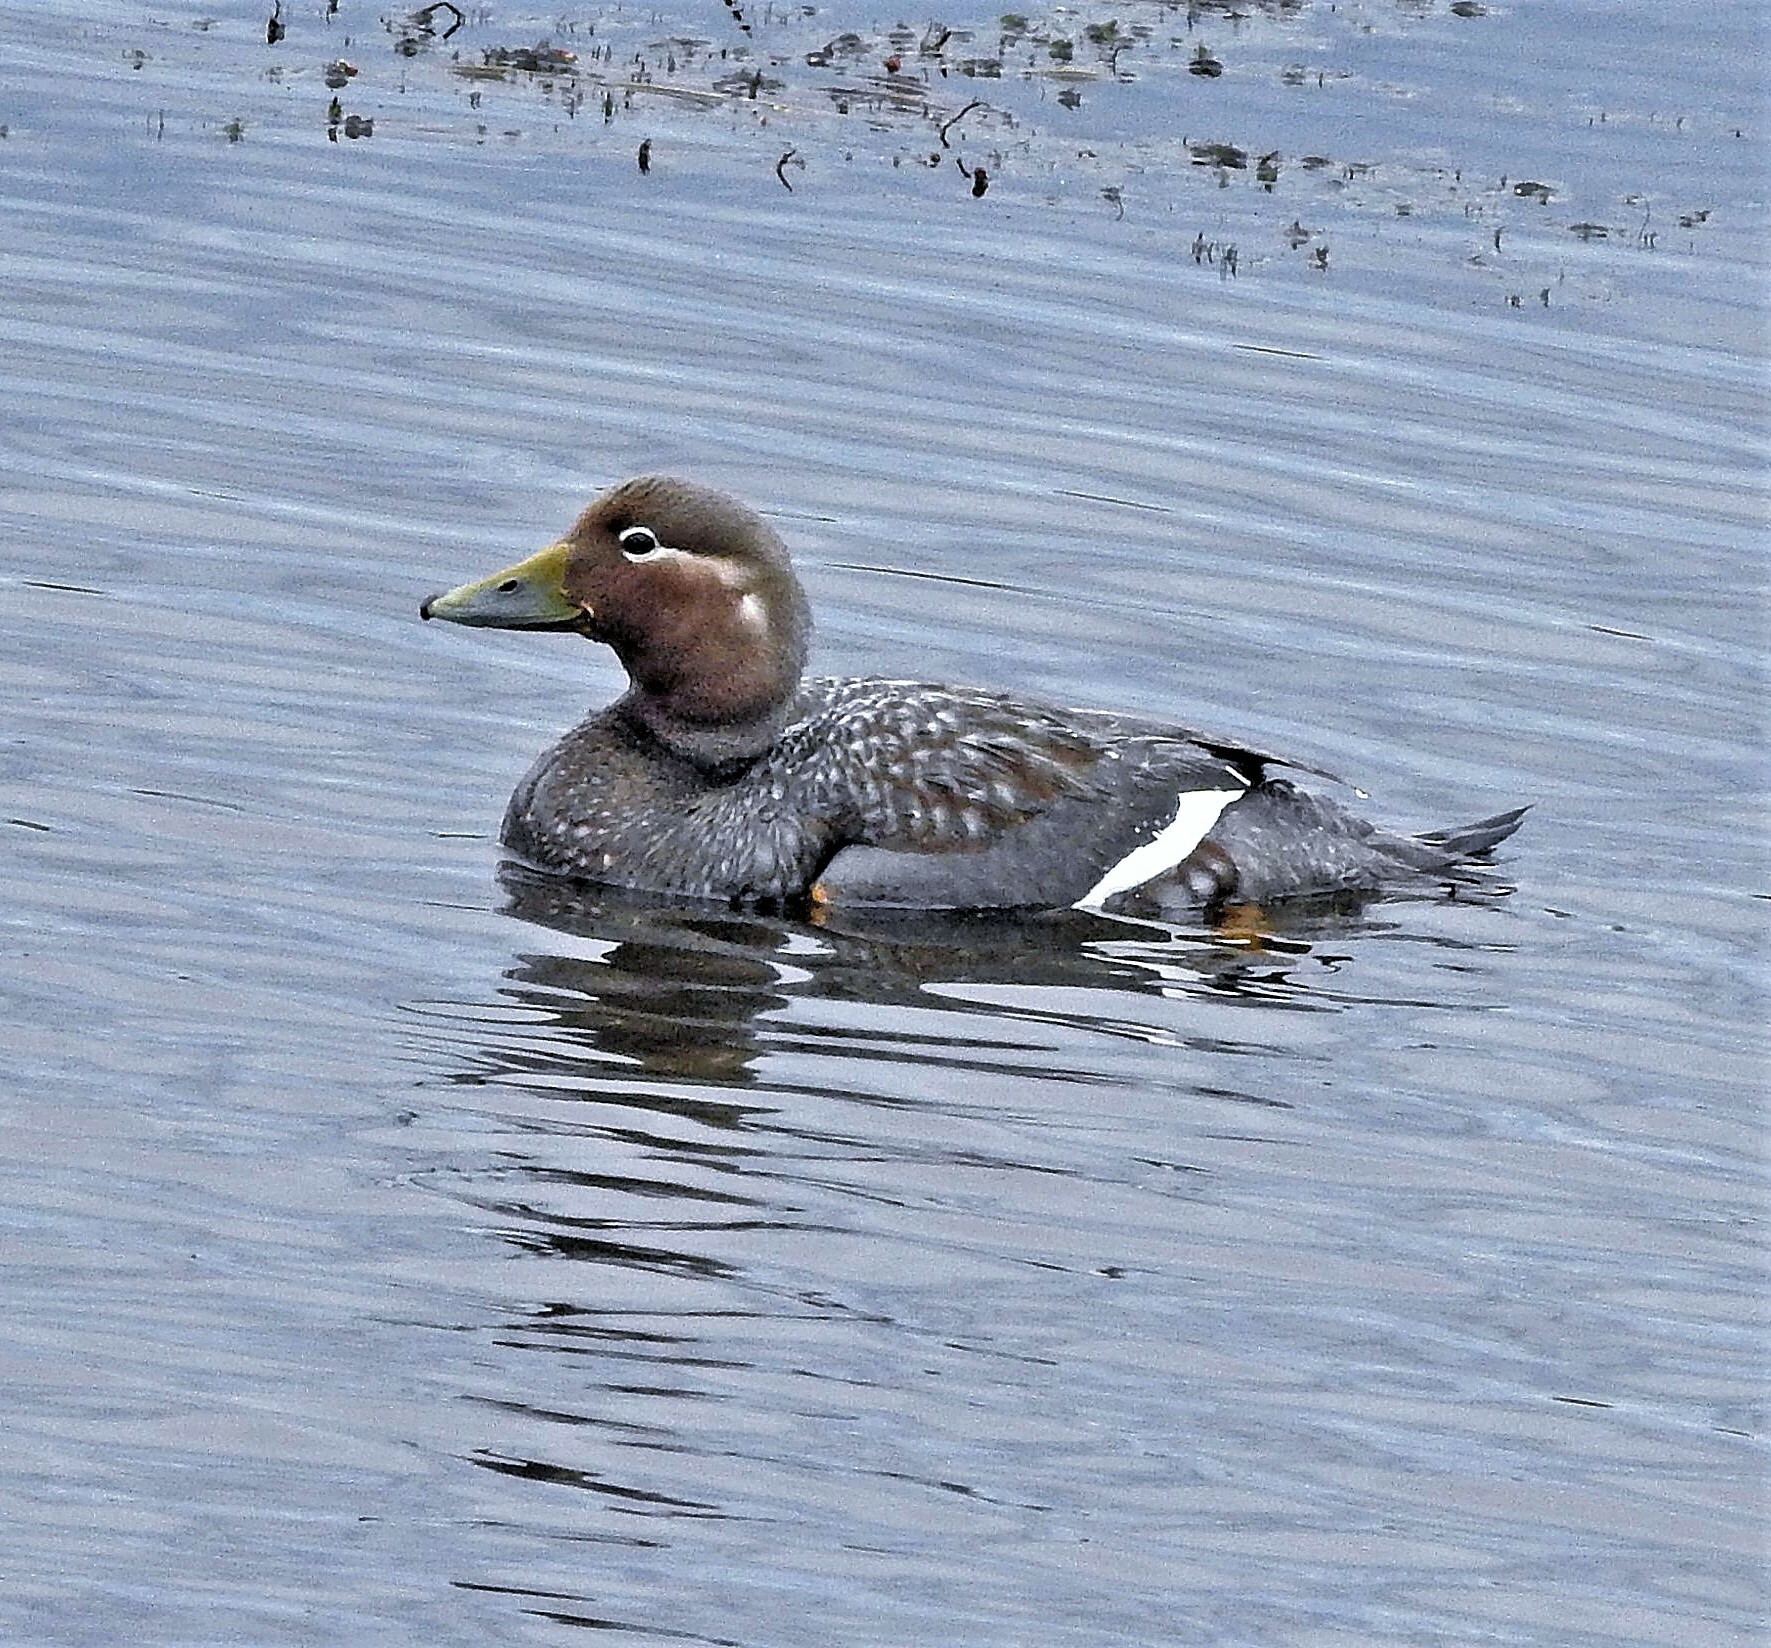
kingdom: Animalia
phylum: Chordata
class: Aves
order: Anseriformes
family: Anatidae
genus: Tachyeres
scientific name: Tachyeres patachonicus
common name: Flying steamer duck
